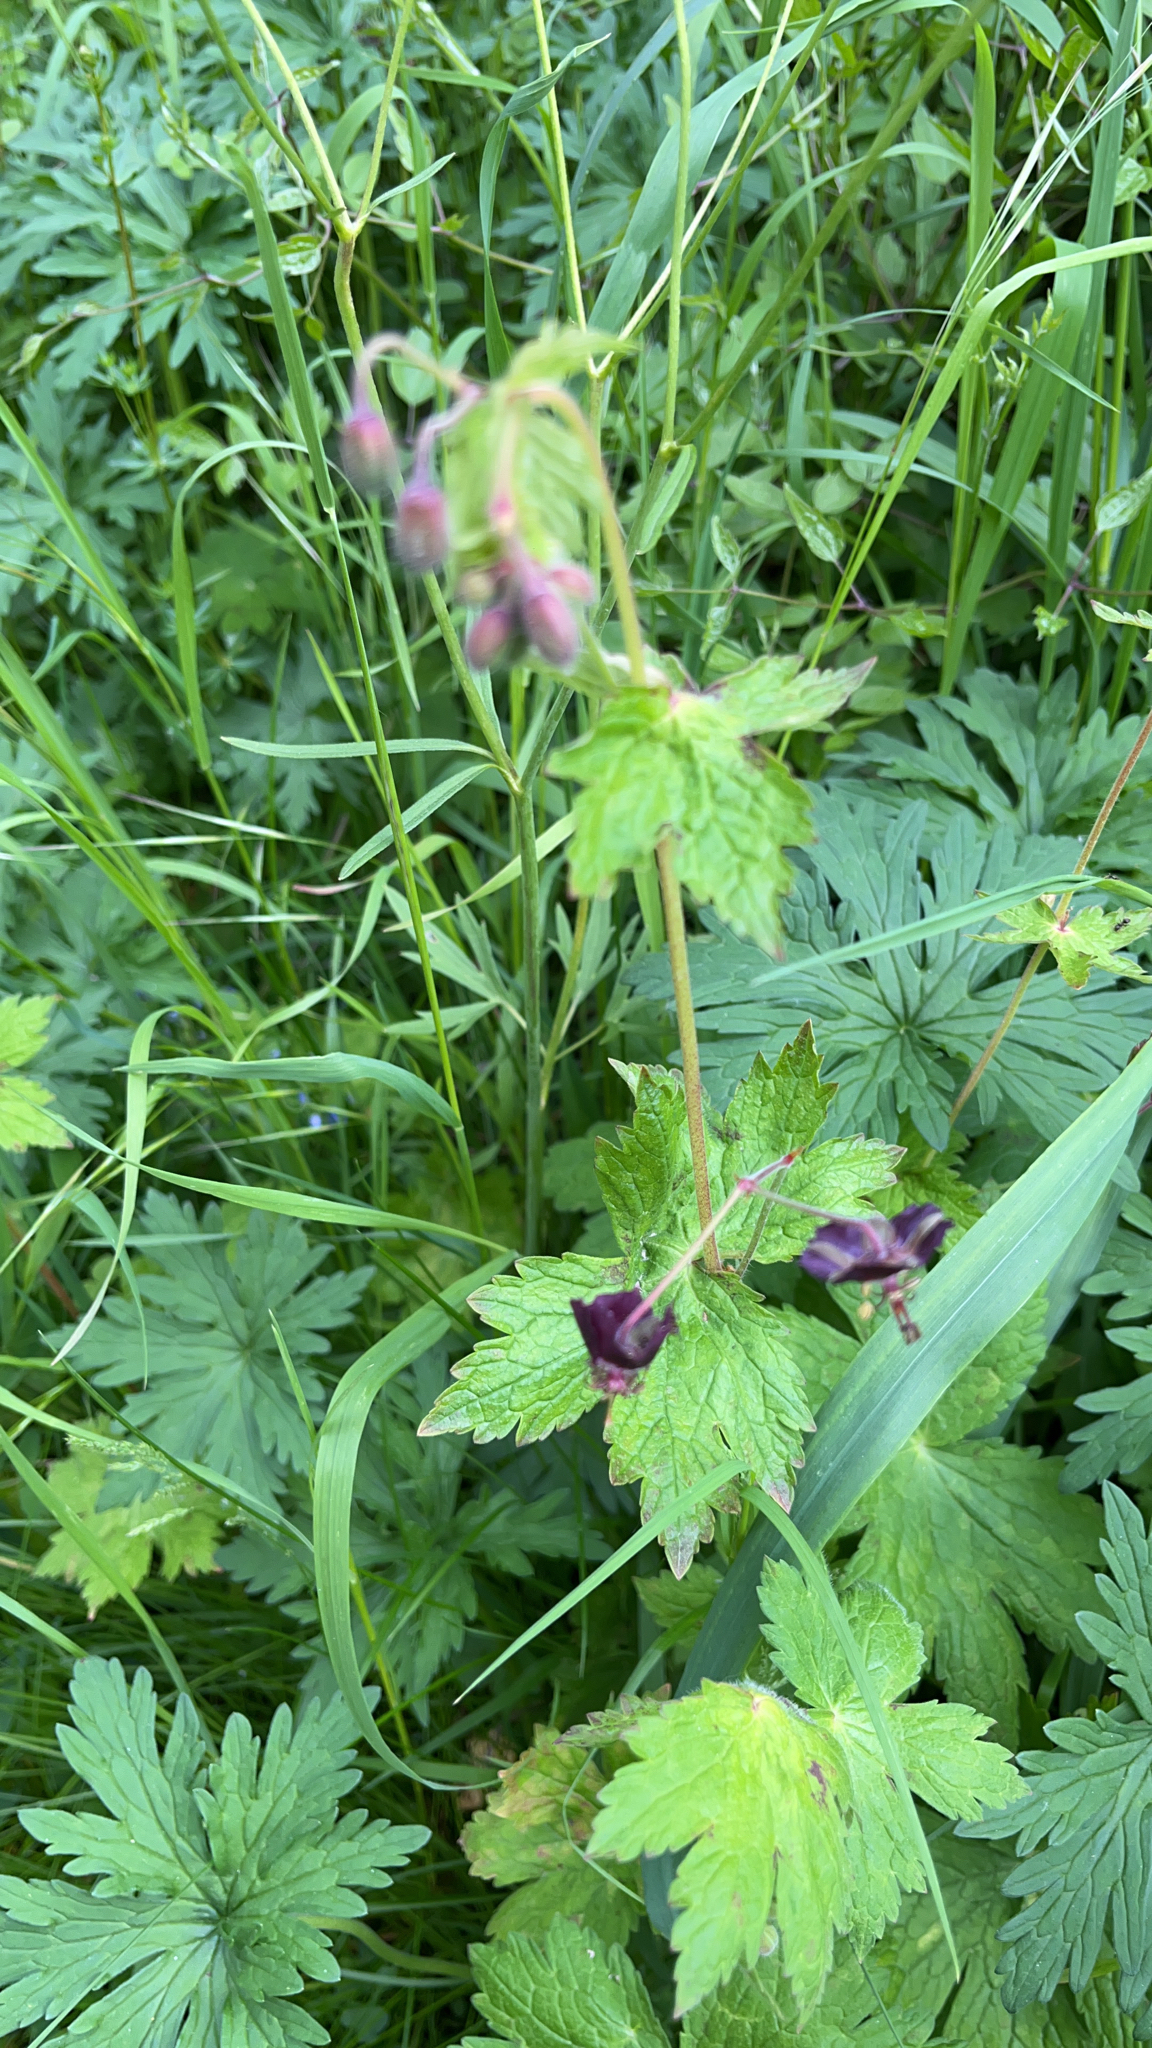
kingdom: Plantae
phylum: Tracheophyta
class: Magnoliopsida
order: Geraniales
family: Geraniaceae
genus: Geranium
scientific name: Geranium phaeum
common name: Dusky crane's-bill
